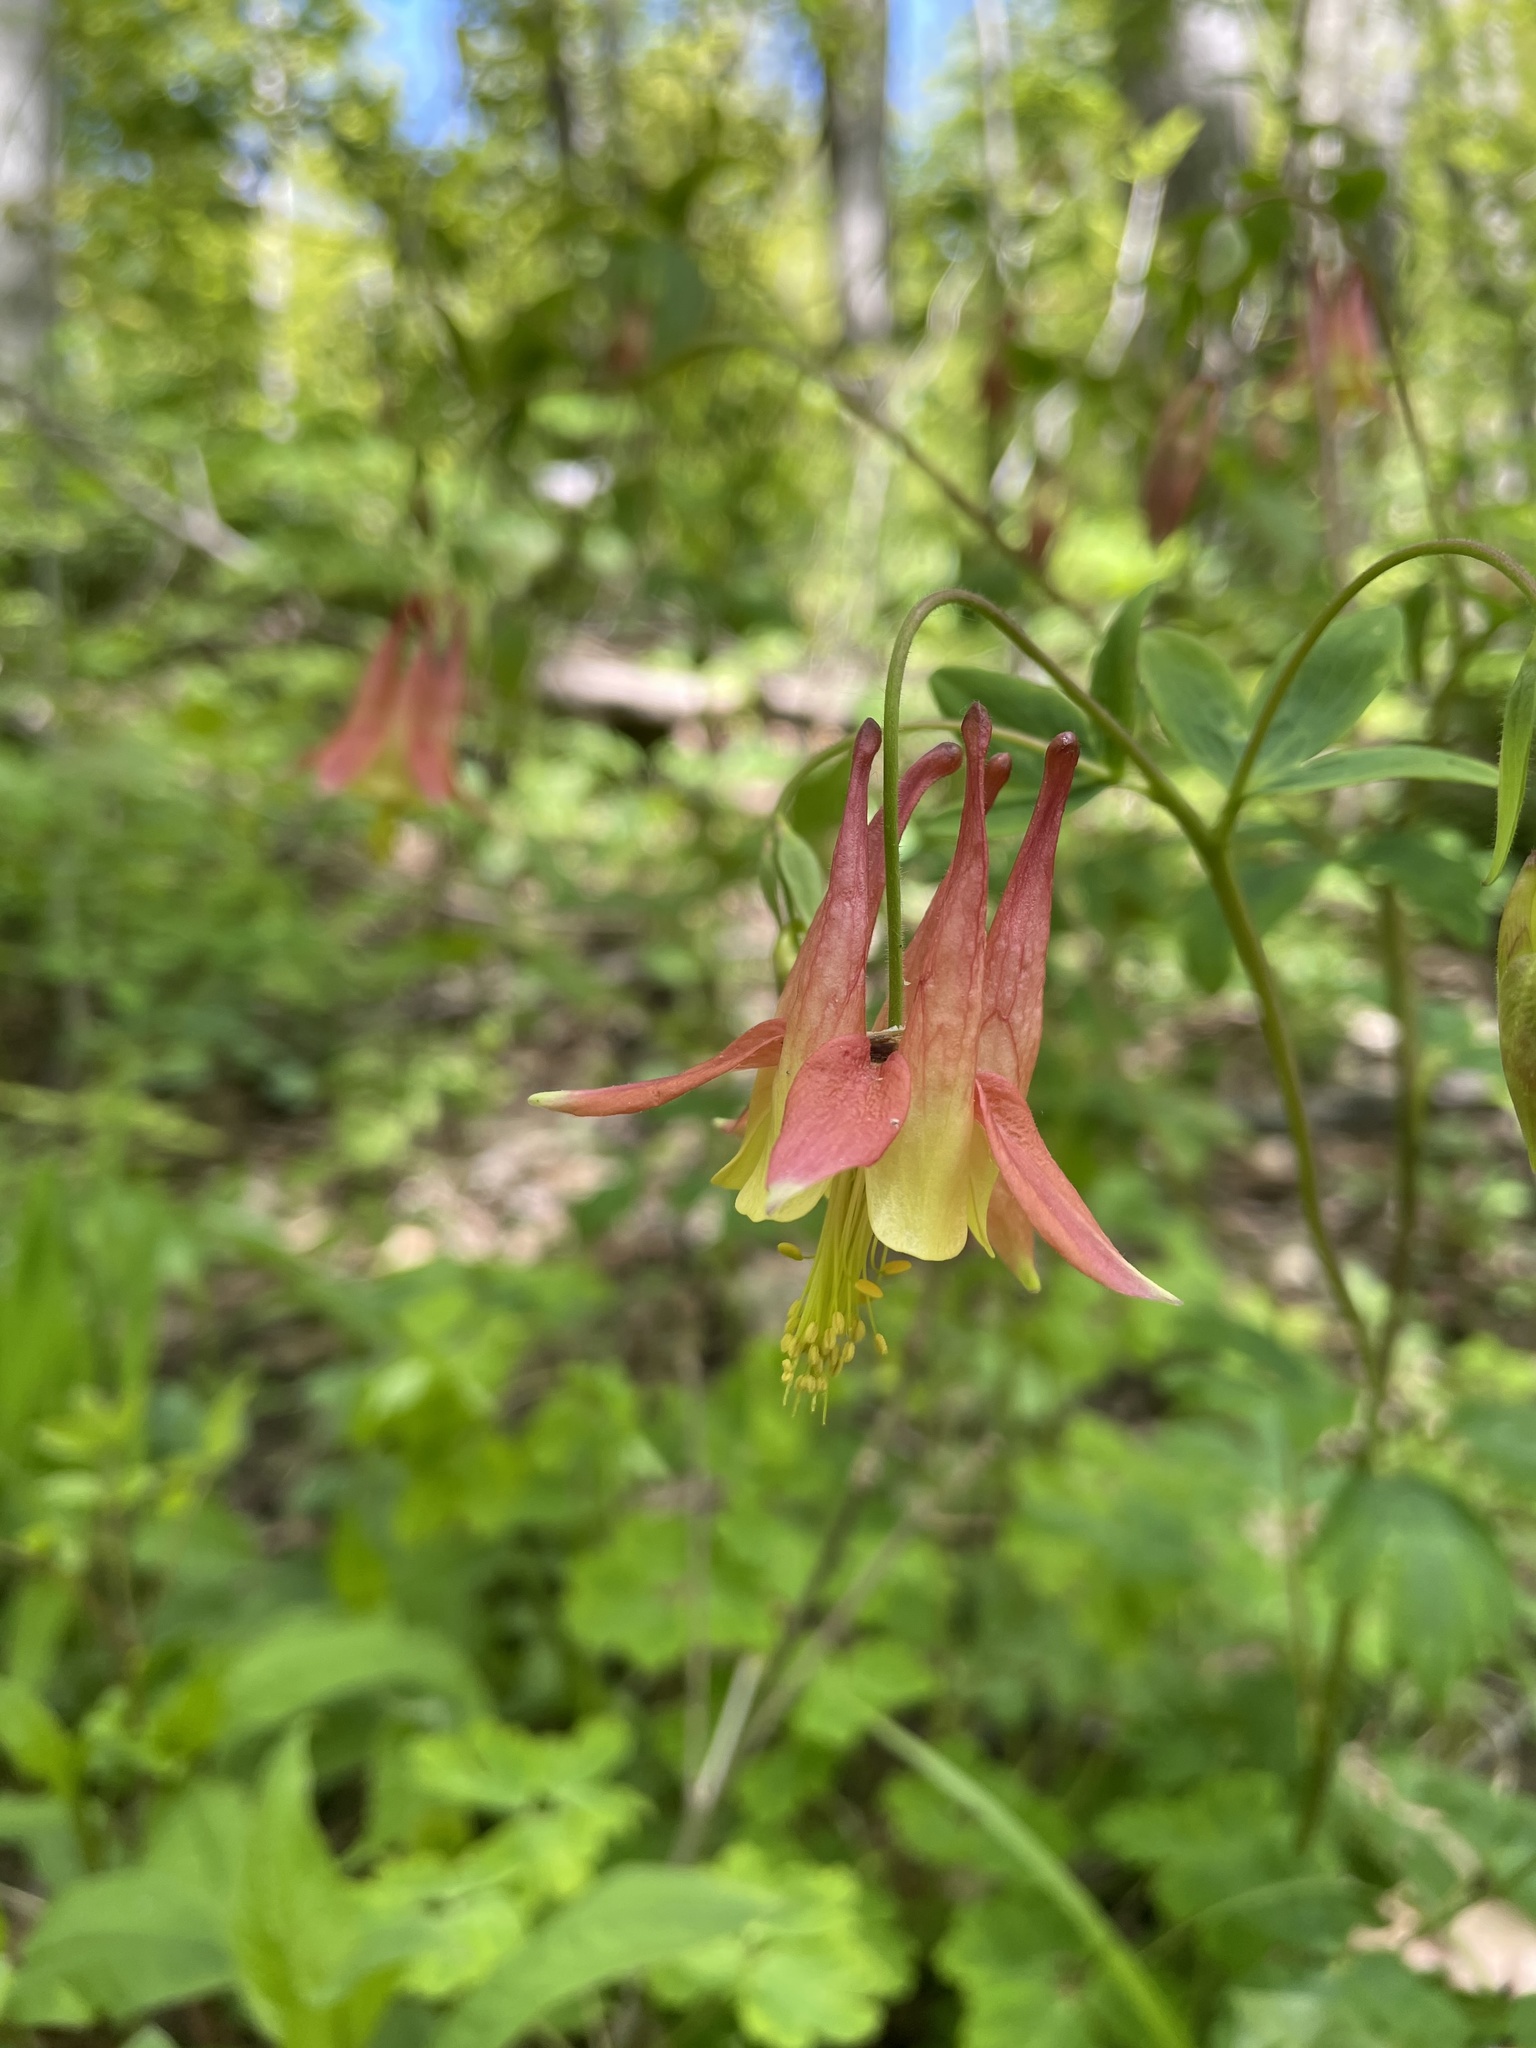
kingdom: Plantae
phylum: Tracheophyta
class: Magnoliopsida
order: Ranunculales
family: Ranunculaceae
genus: Aquilegia
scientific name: Aquilegia canadensis
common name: American columbine
